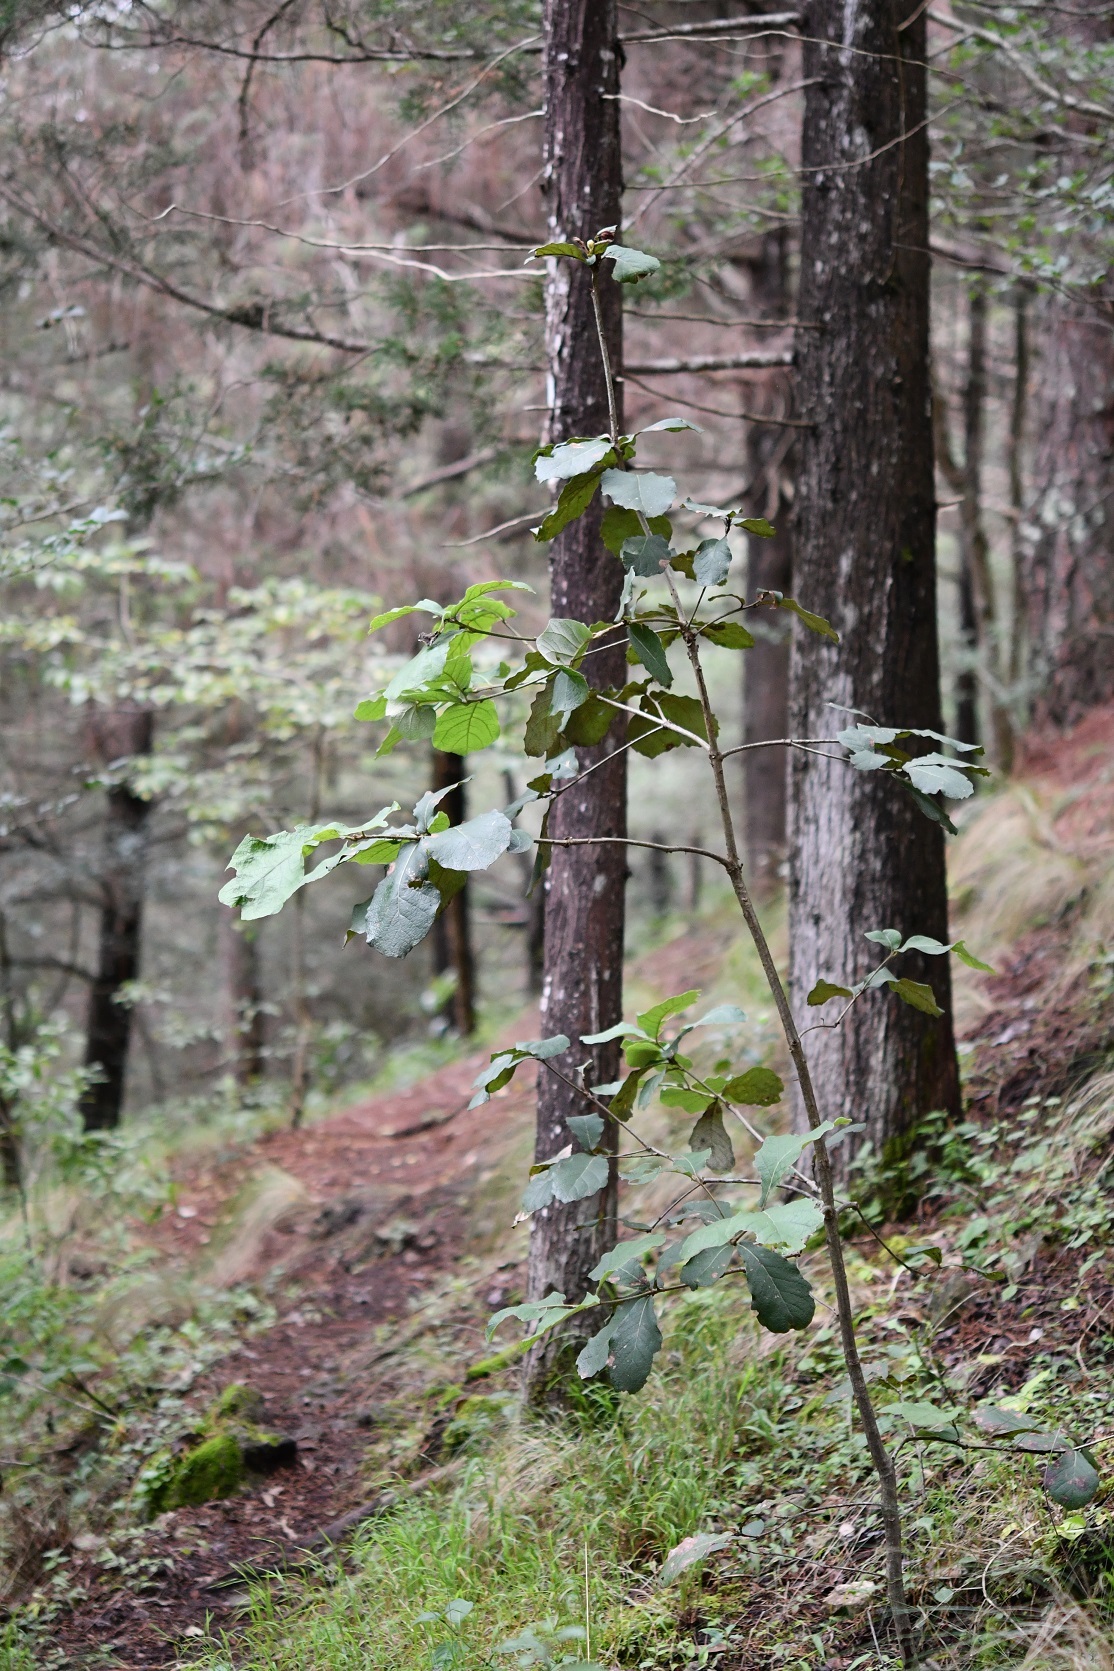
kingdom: Plantae
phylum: Tracheophyta
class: Magnoliopsida
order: Fagales
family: Fagaceae
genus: Quercus
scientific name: Quercus rugosa
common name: Netleaf oak
